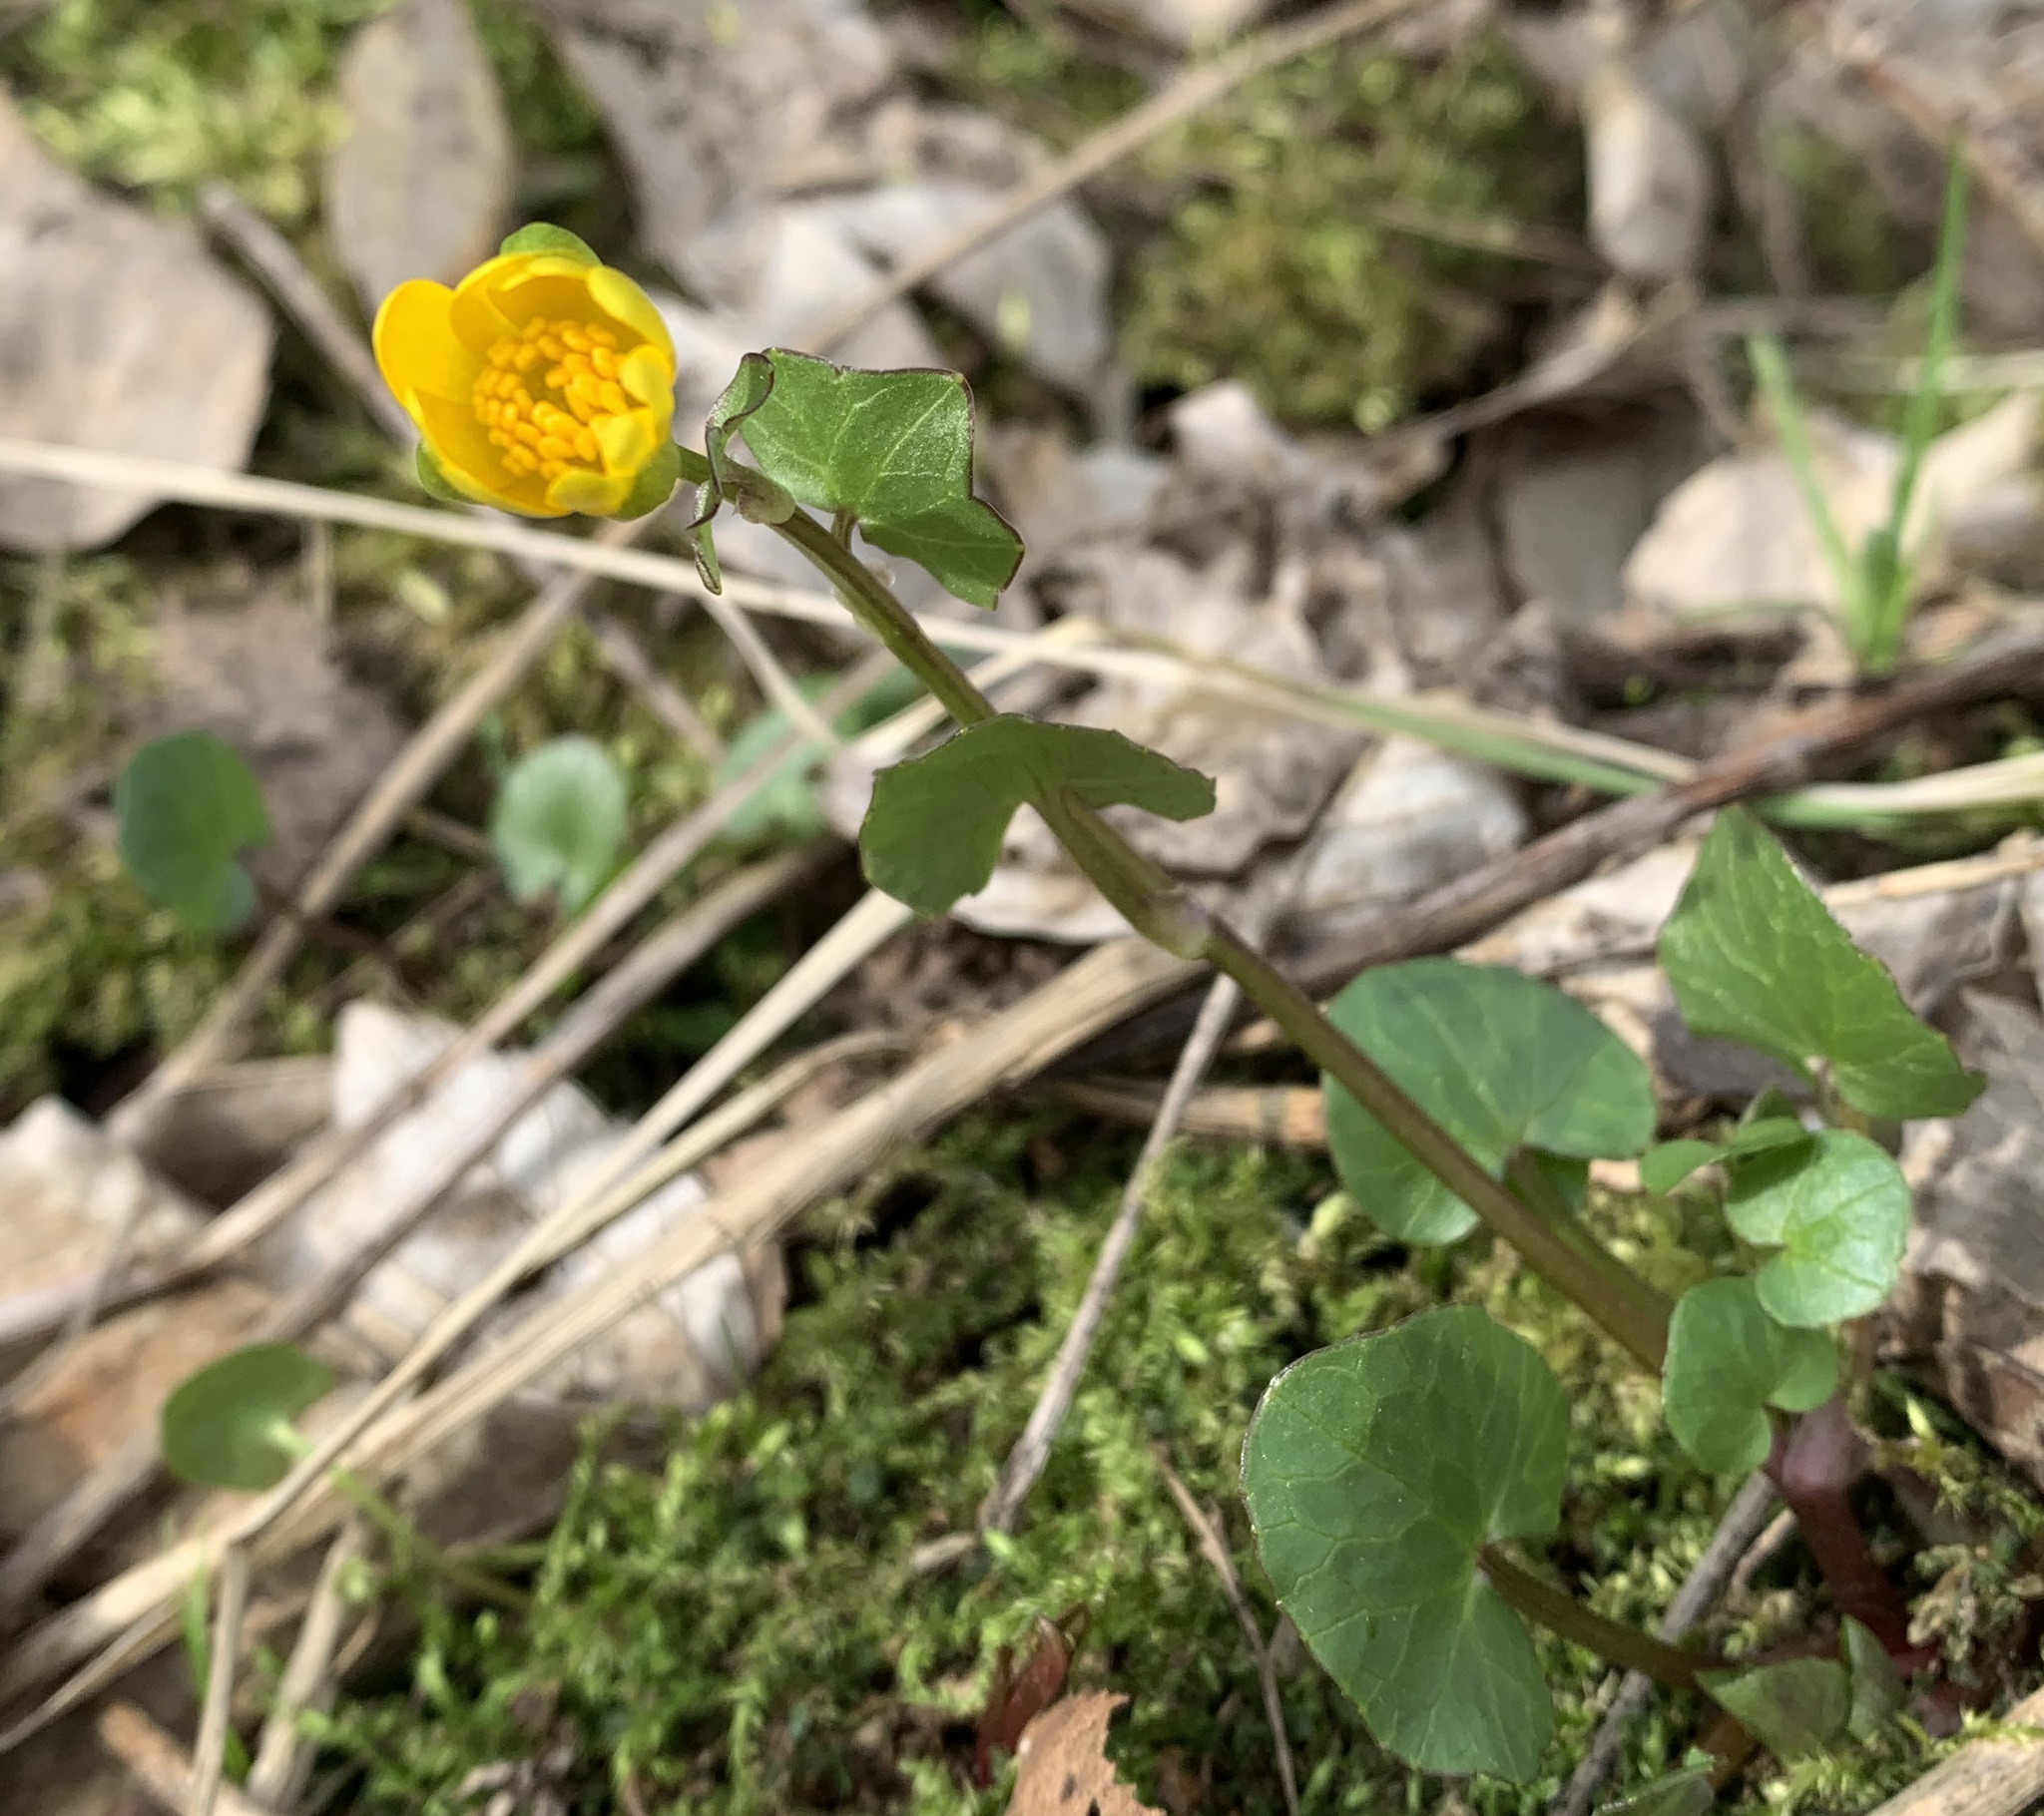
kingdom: Plantae
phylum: Tracheophyta
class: Magnoliopsida
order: Ranunculales
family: Ranunculaceae
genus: Ficaria
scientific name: Ficaria verna
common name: Lesser celandine
